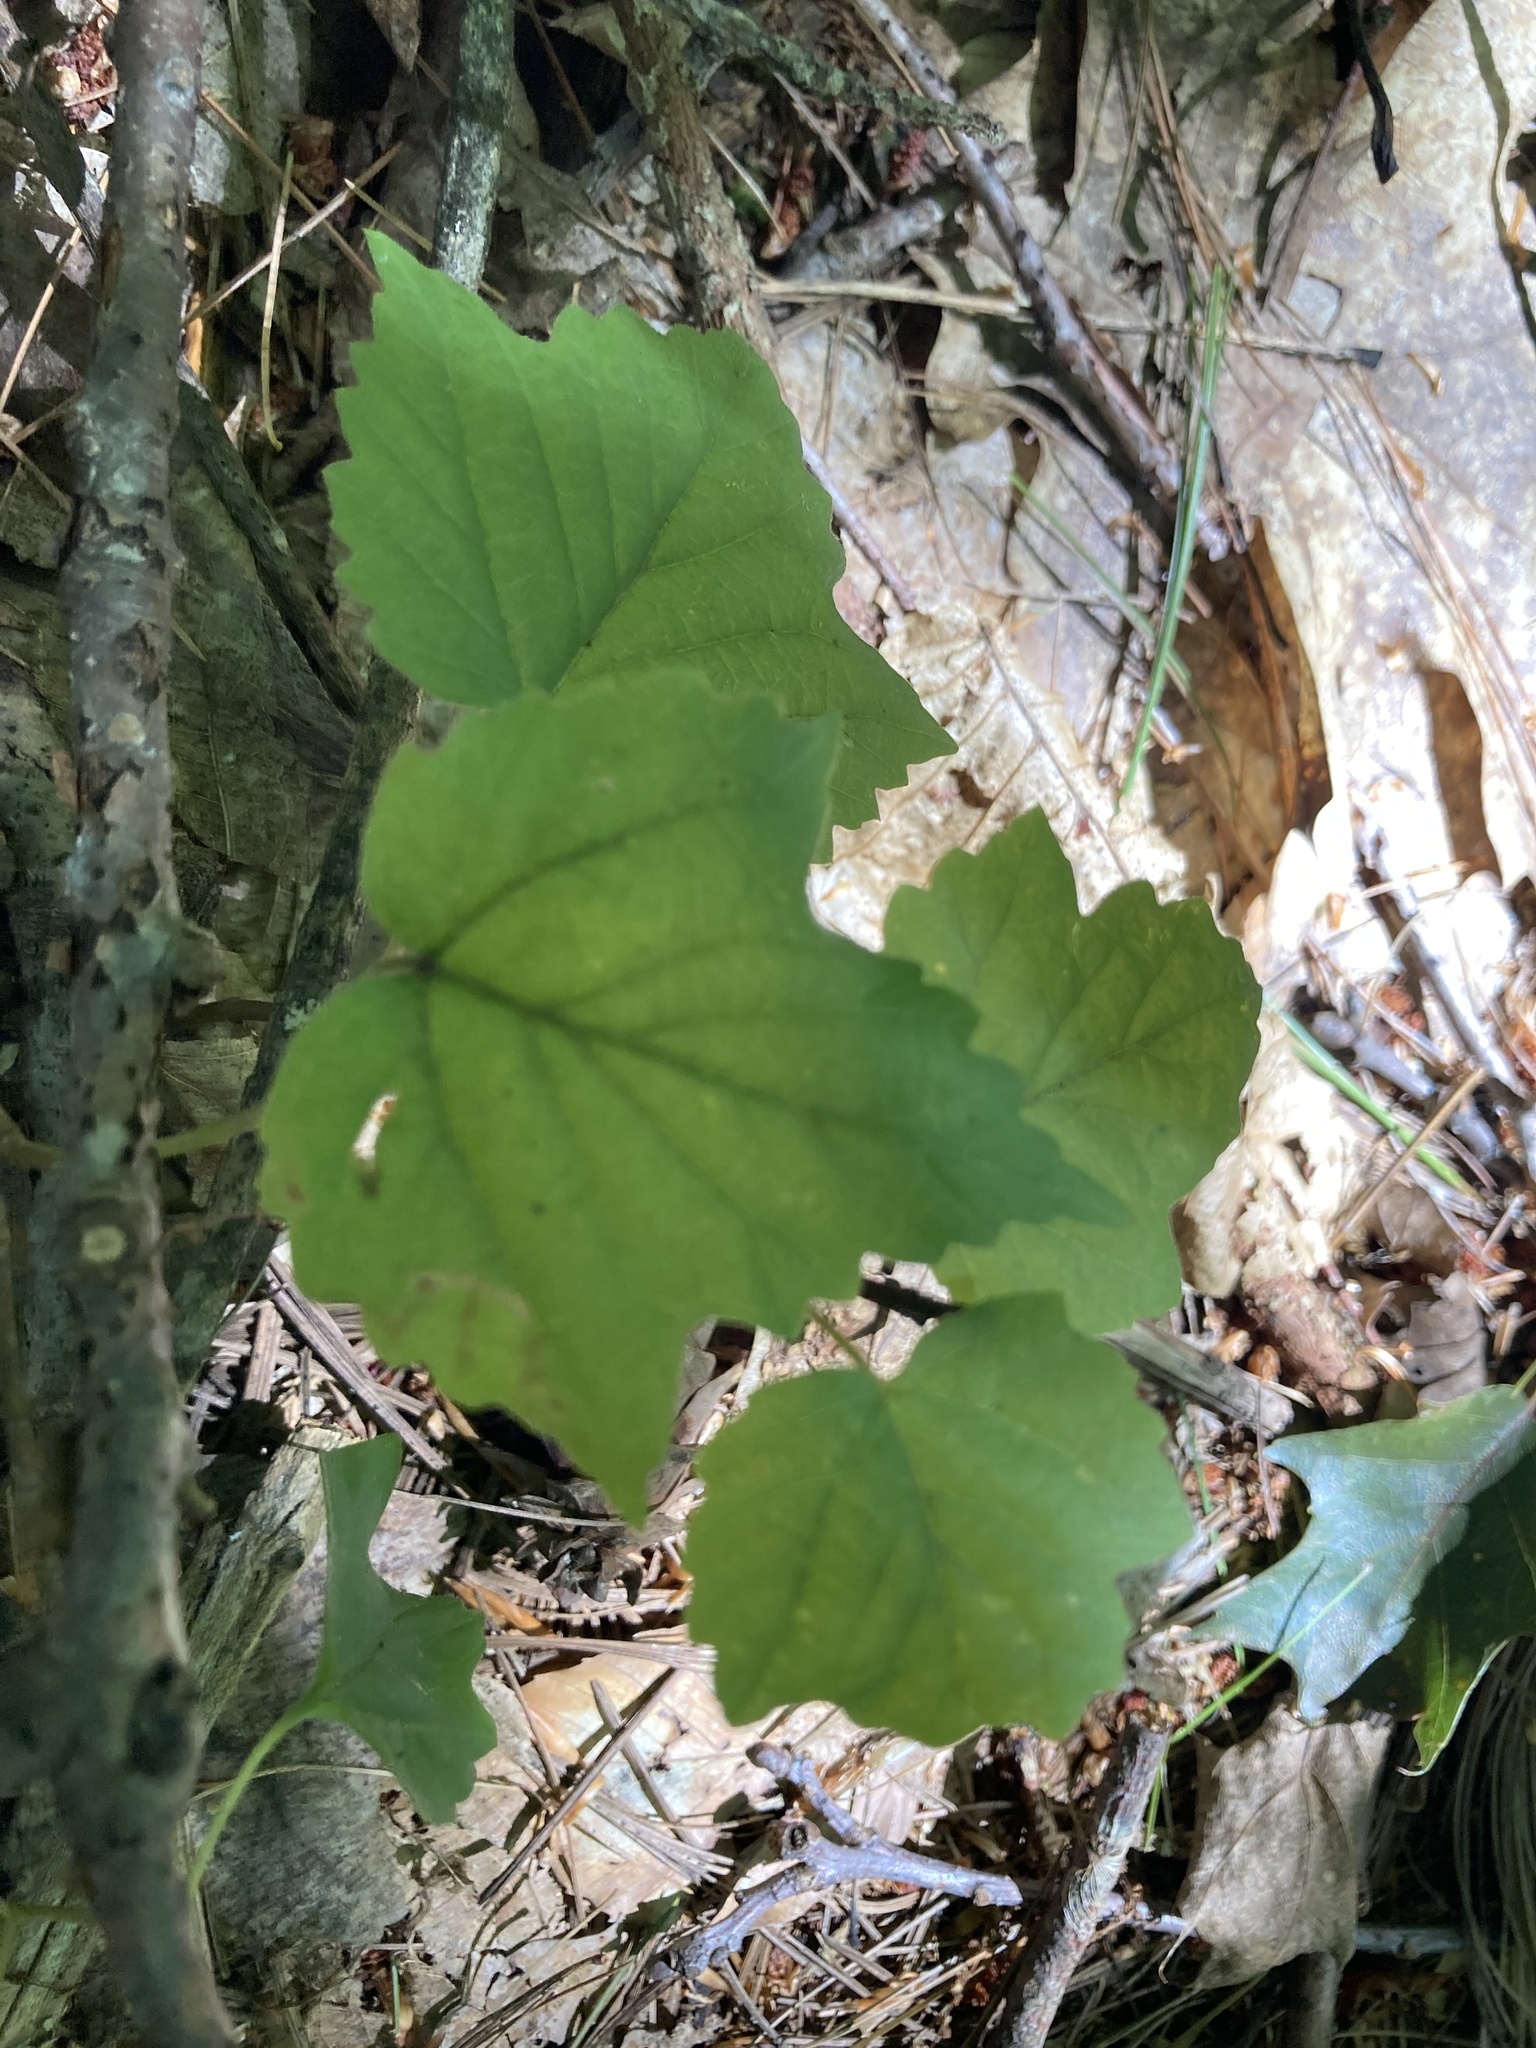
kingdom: Plantae
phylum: Tracheophyta
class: Magnoliopsida
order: Dipsacales
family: Viburnaceae
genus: Viburnum
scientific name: Viburnum acerifolium
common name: Dockmackie
